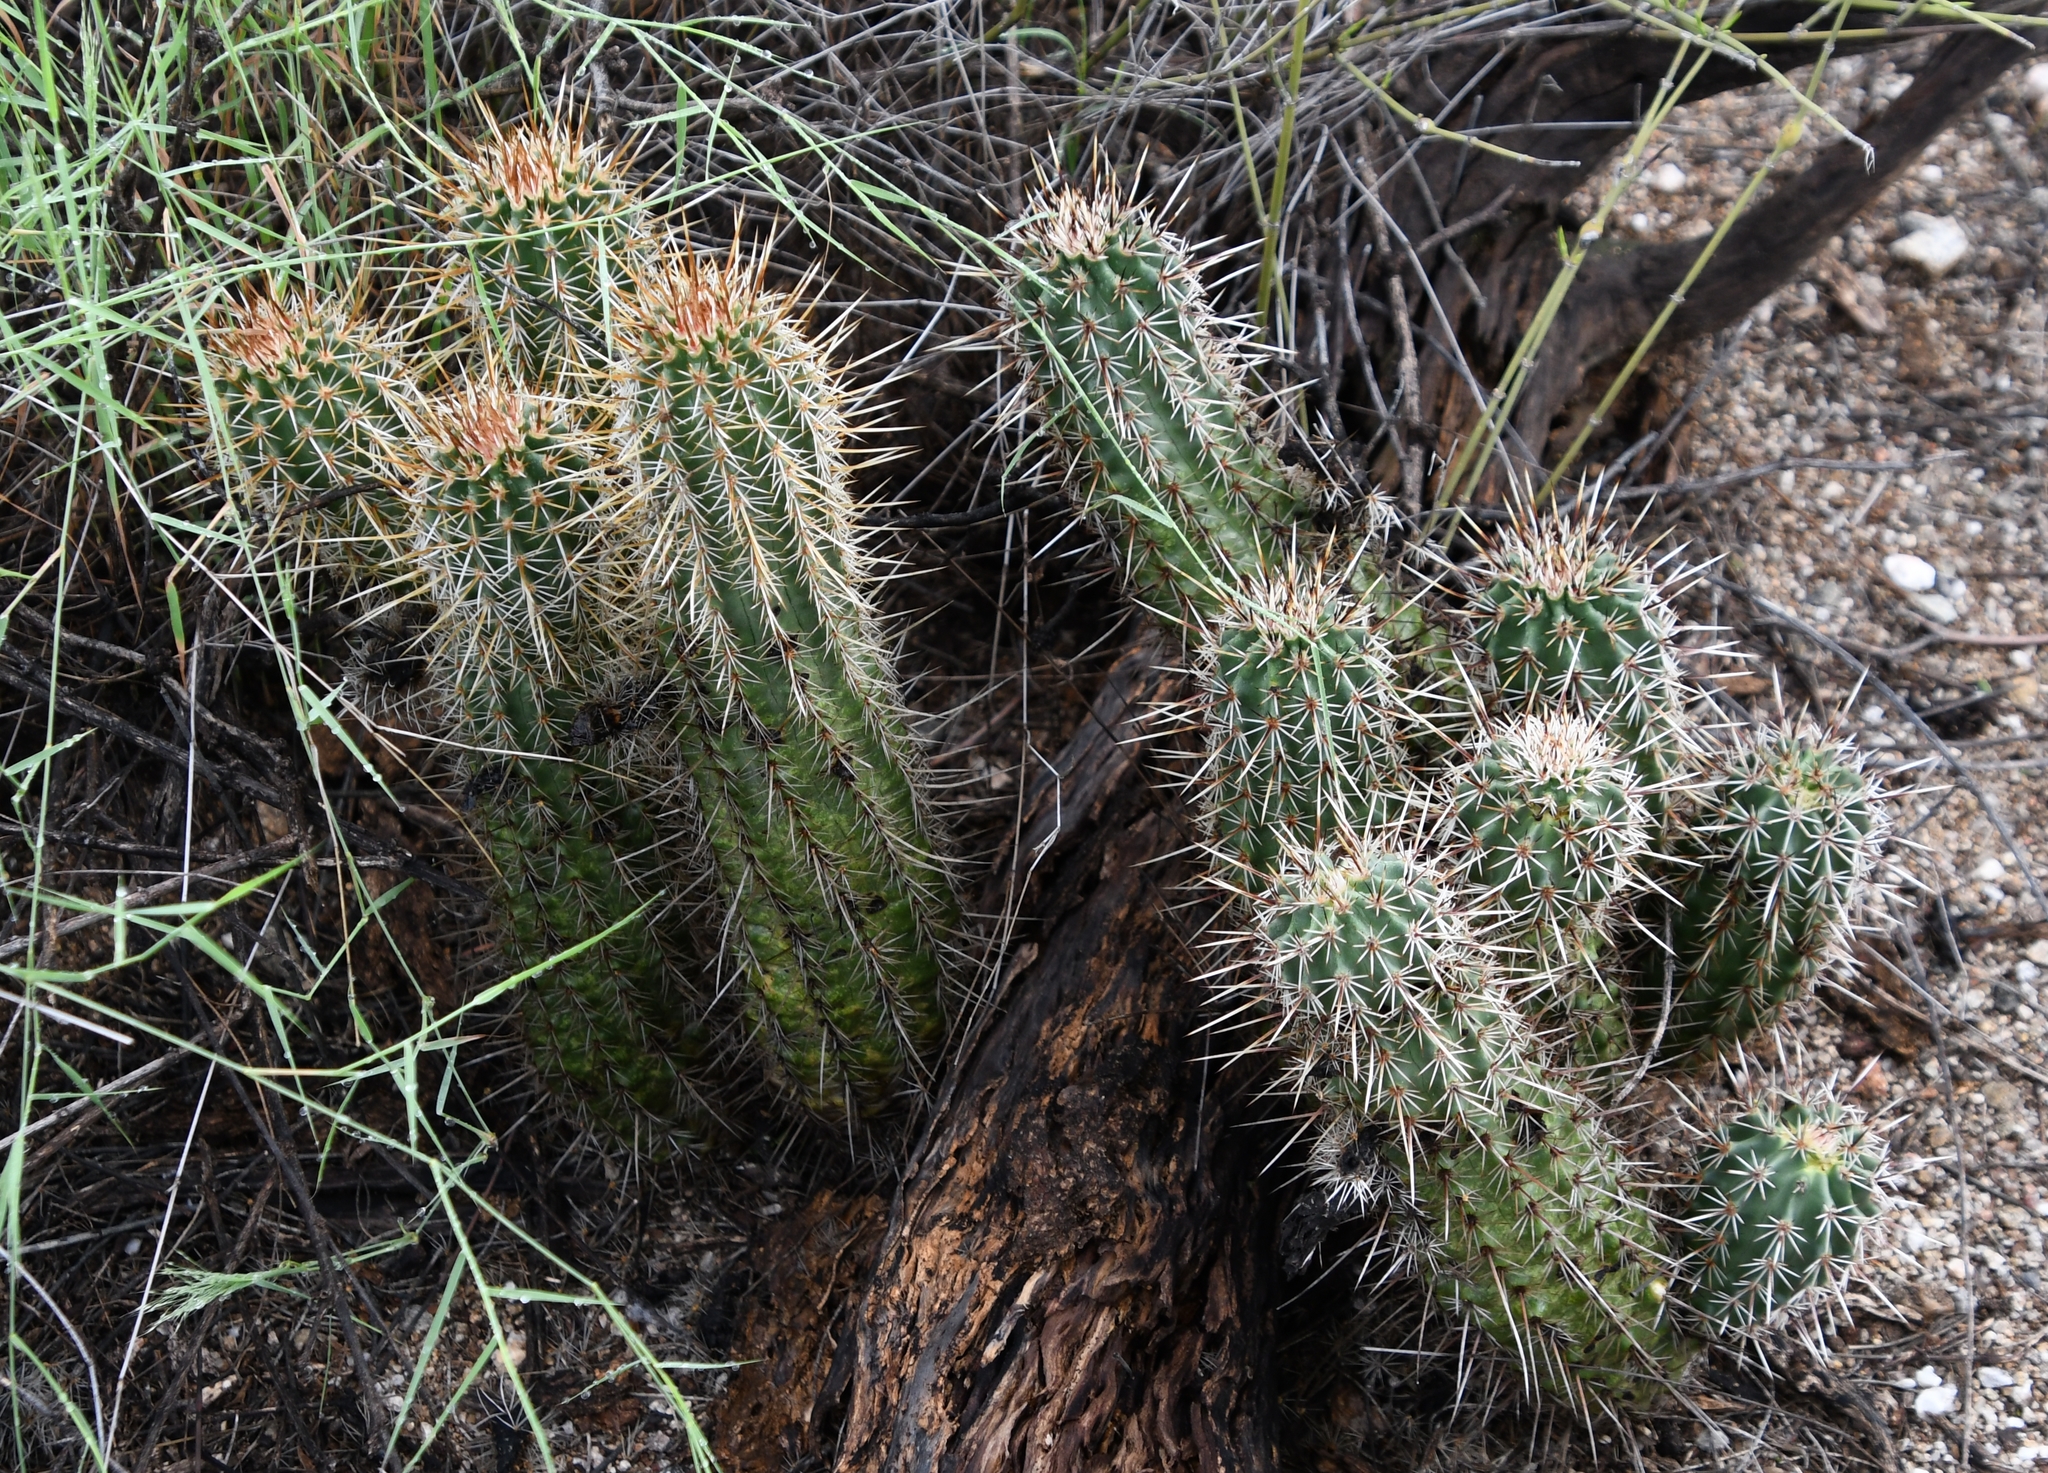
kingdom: Plantae
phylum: Tracheophyta
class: Magnoliopsida
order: Caryophyllales
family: Cactaceae
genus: Echinocereus
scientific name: Echinocereus fasciculatus
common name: Bundle hedgehog
